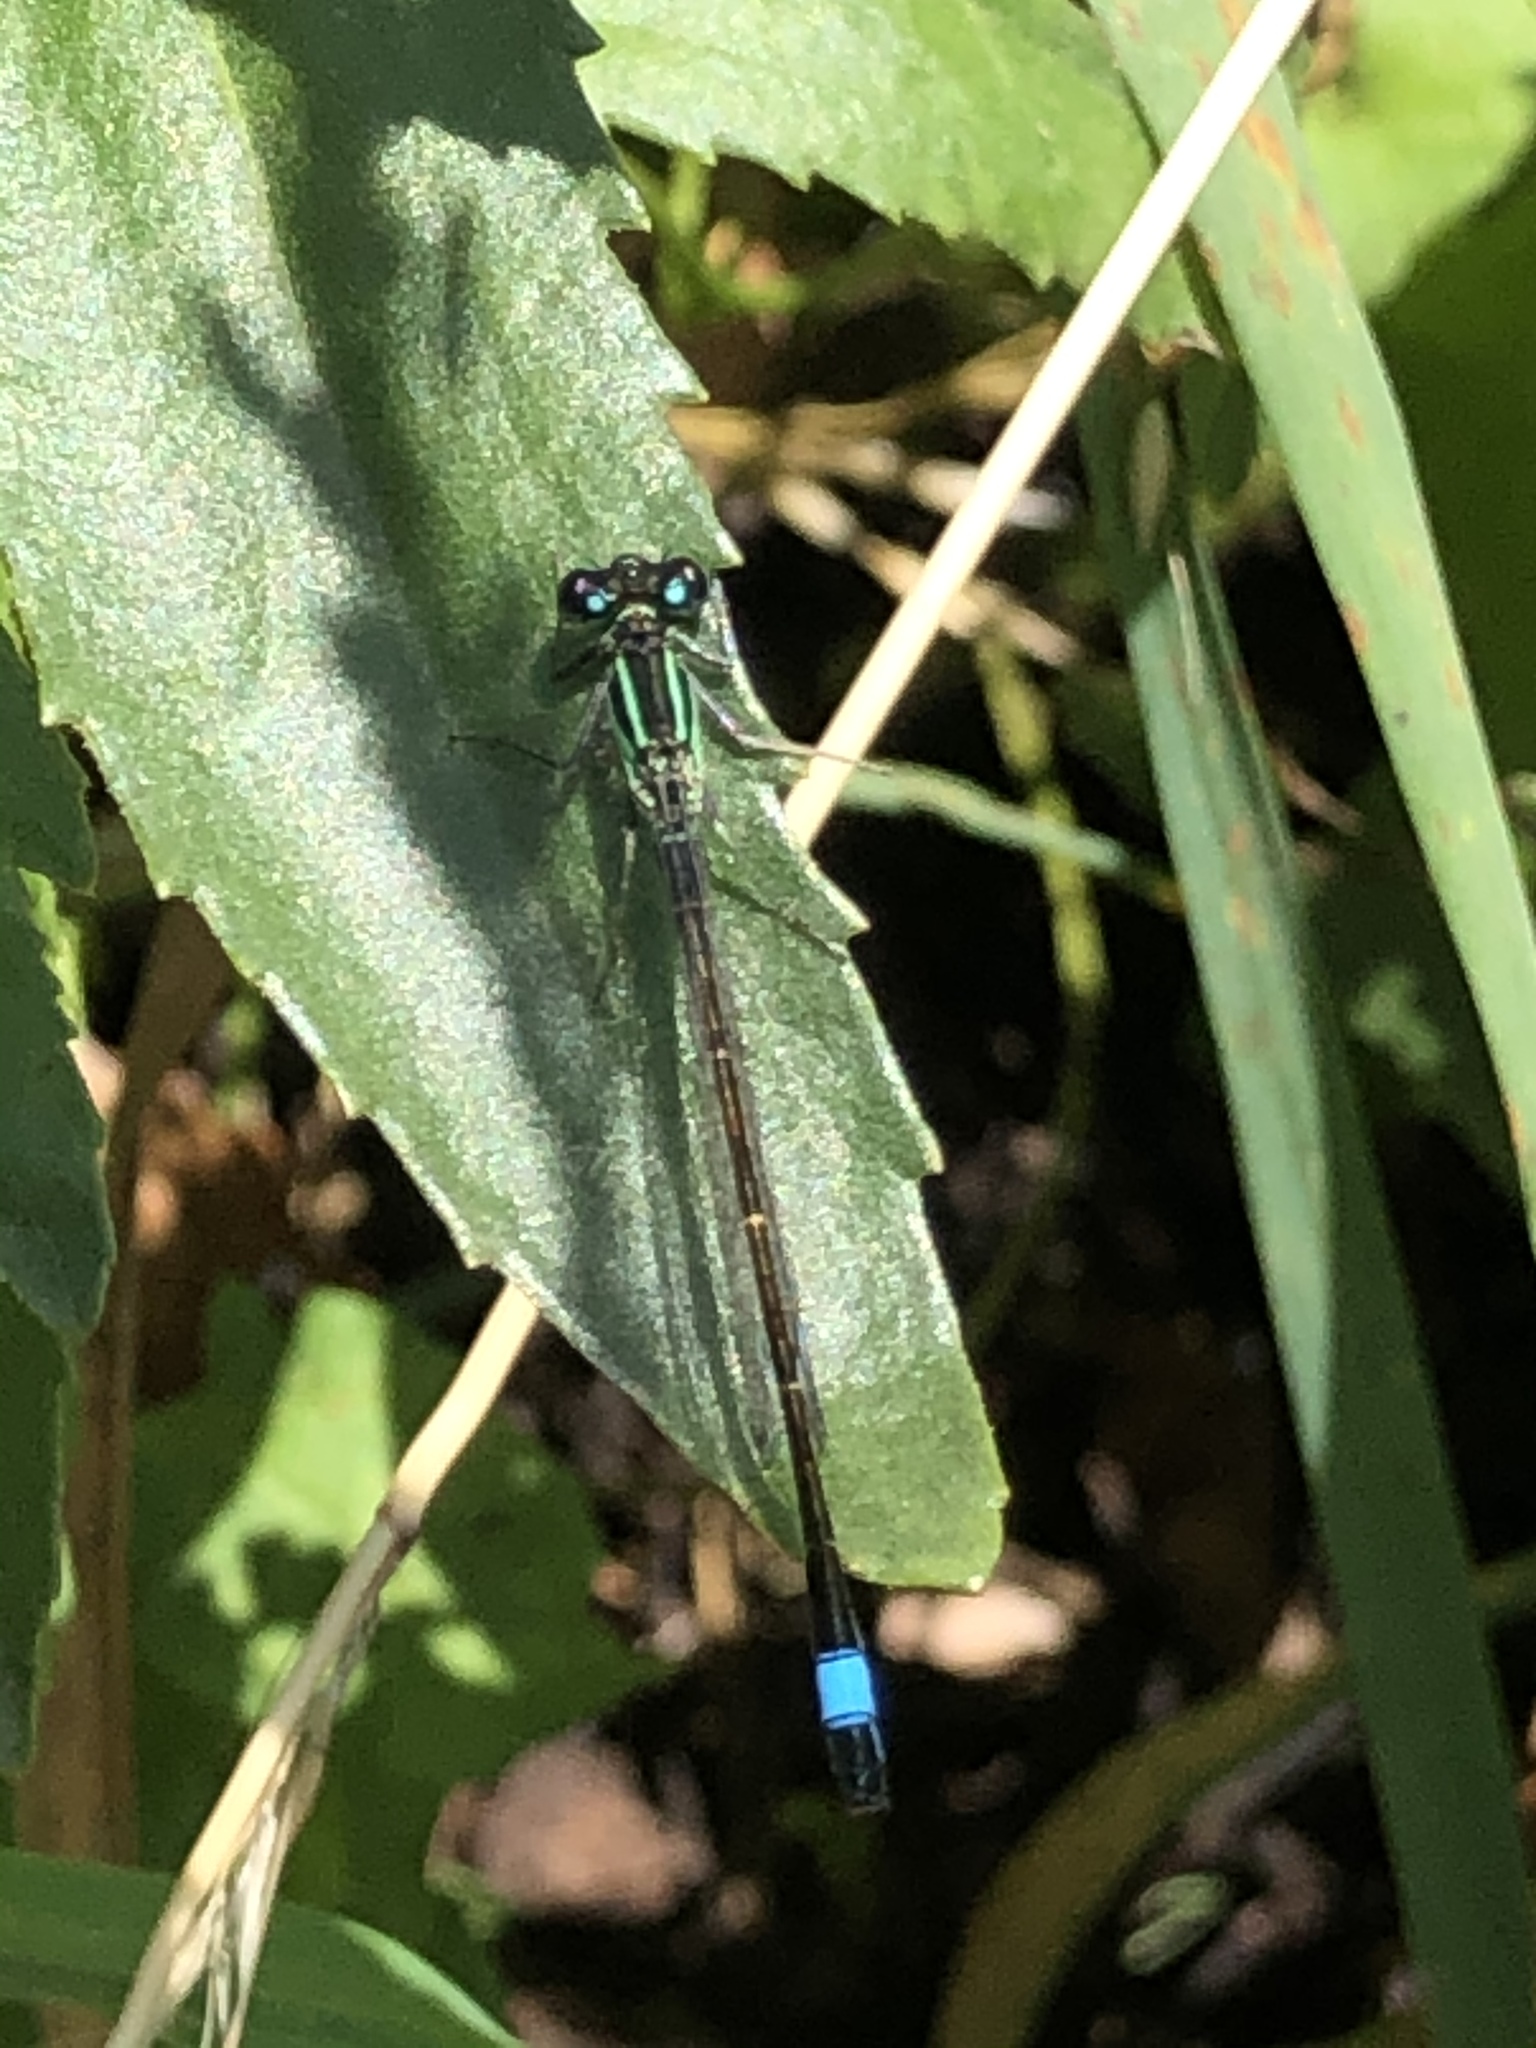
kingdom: Animalia
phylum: Arthropoda
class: Insecta
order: Odonata
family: Coenagrionidae
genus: Ischnura
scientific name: Ischnura elegans
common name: Blue-tailed damselfly
